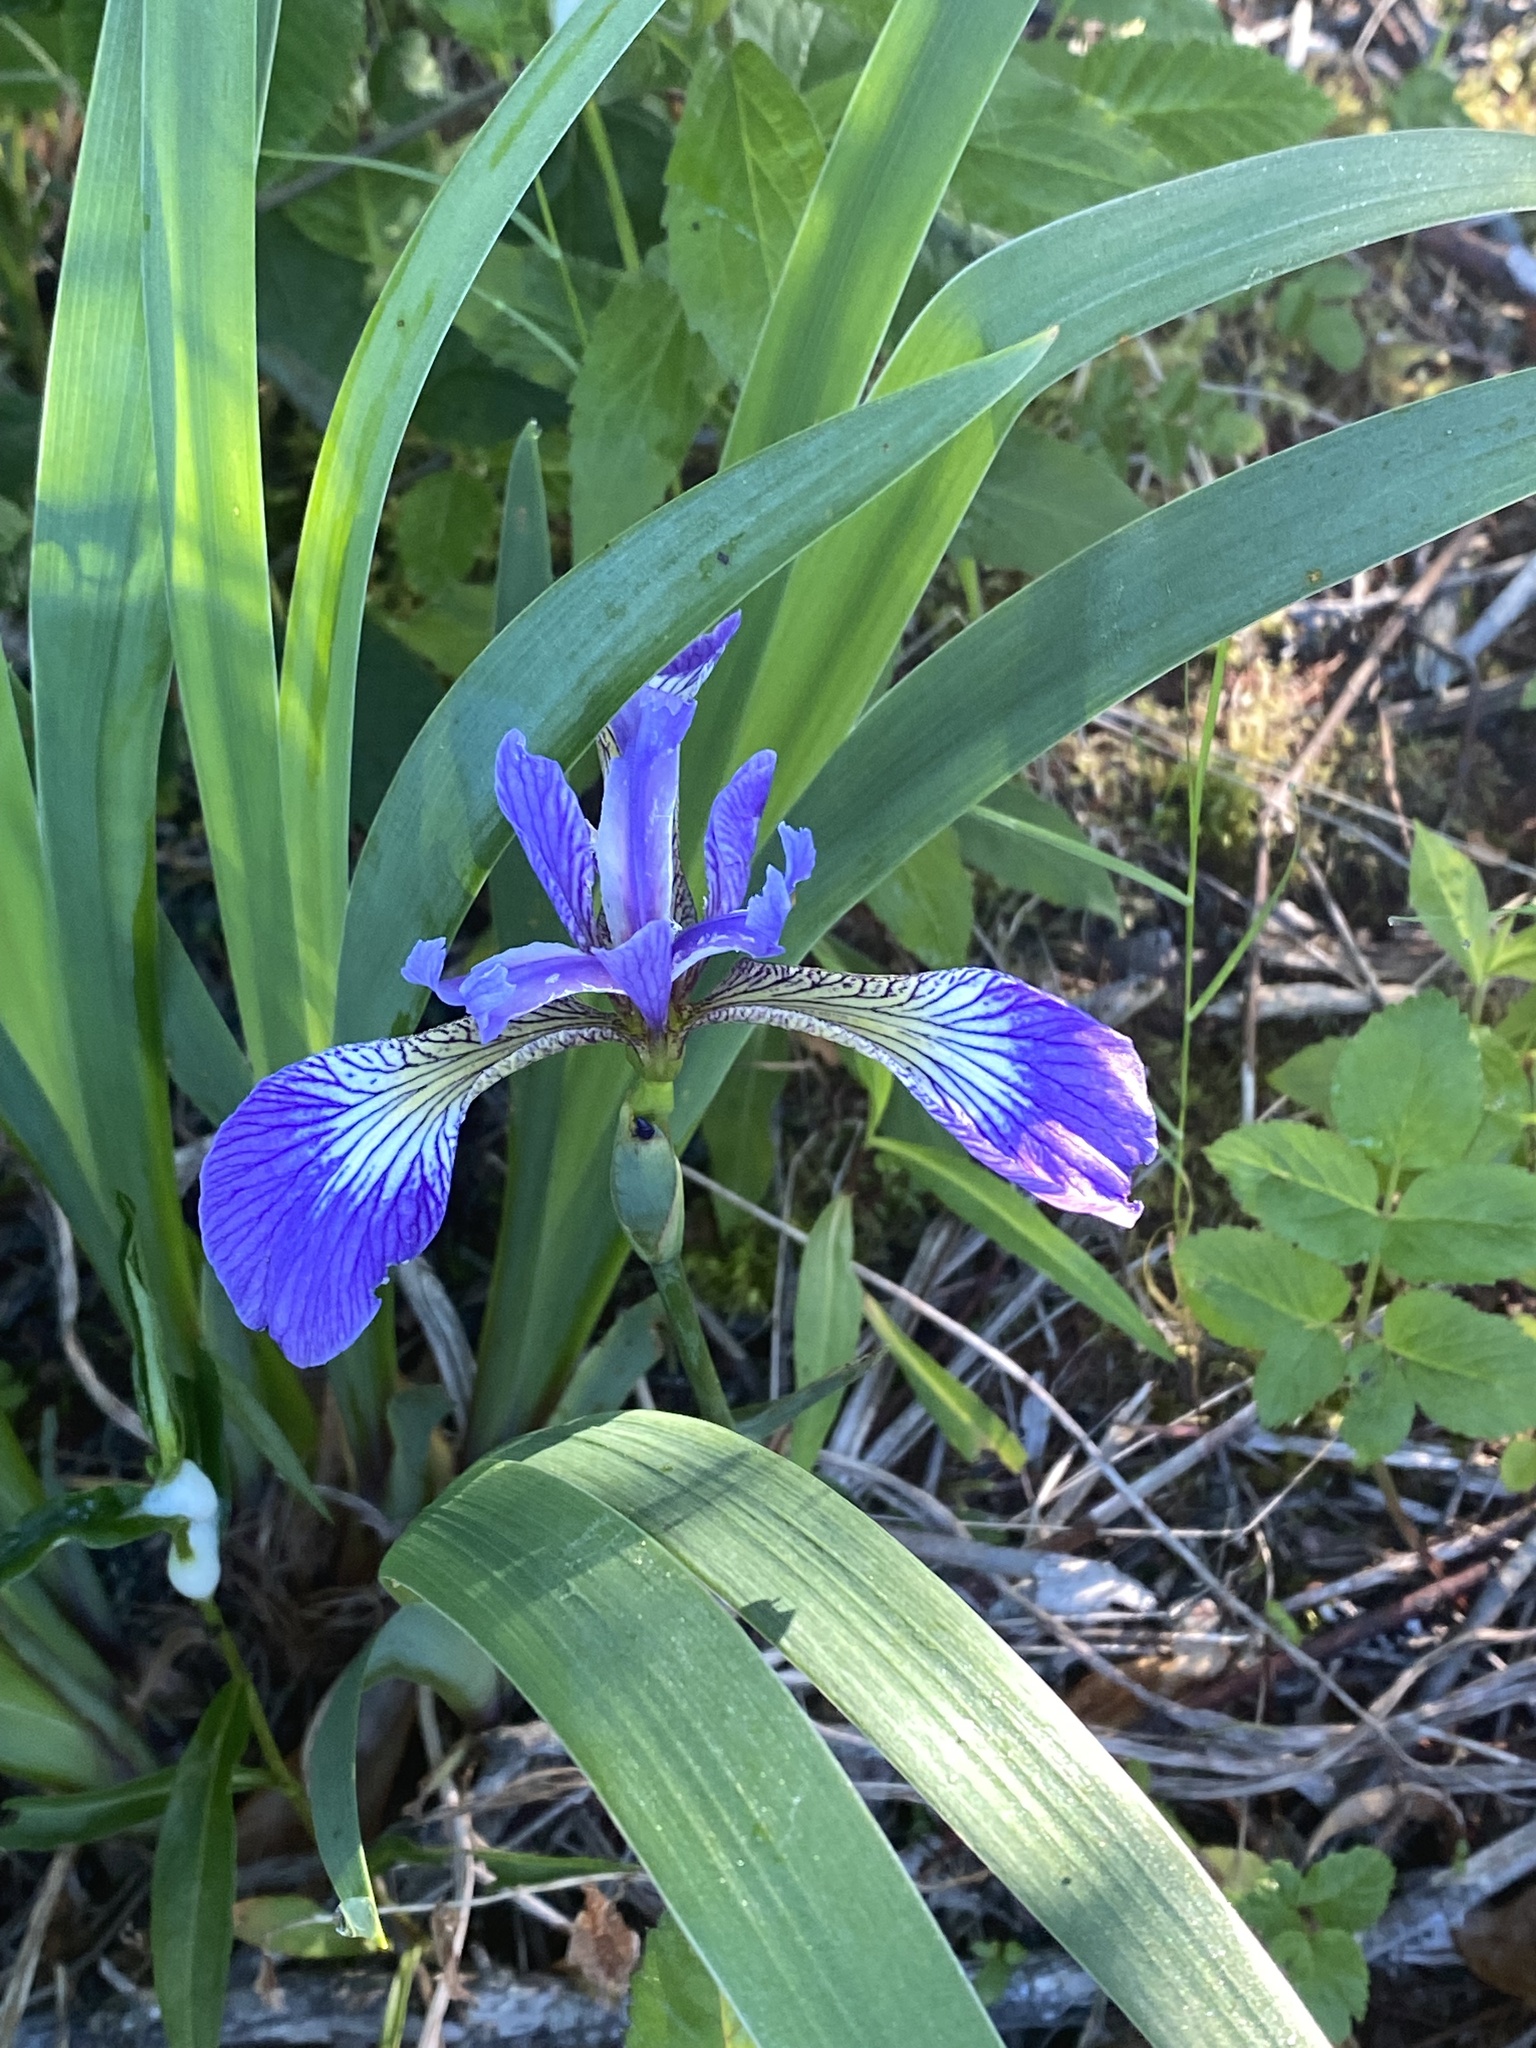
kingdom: Plantae
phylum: Tracheophyta
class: Liliopsida
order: Asparagales
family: Iridaceae
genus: Iris
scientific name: Iris versicolor
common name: Purple iris
